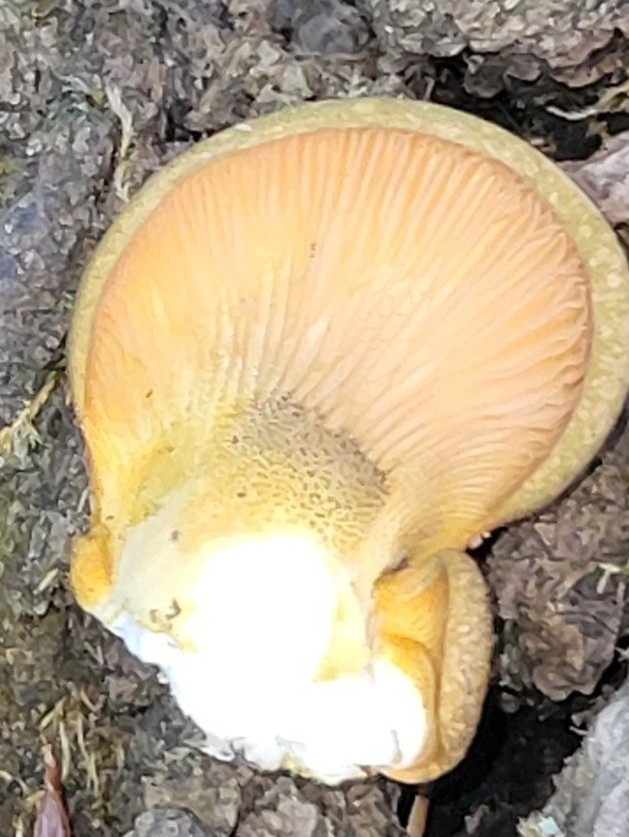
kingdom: Fungi
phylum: Basidiomycota
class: Agaricomycetes
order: Agaricales
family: Sarcomyxaceae
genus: Sarcomyxa
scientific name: Sarcomyxa serotina
